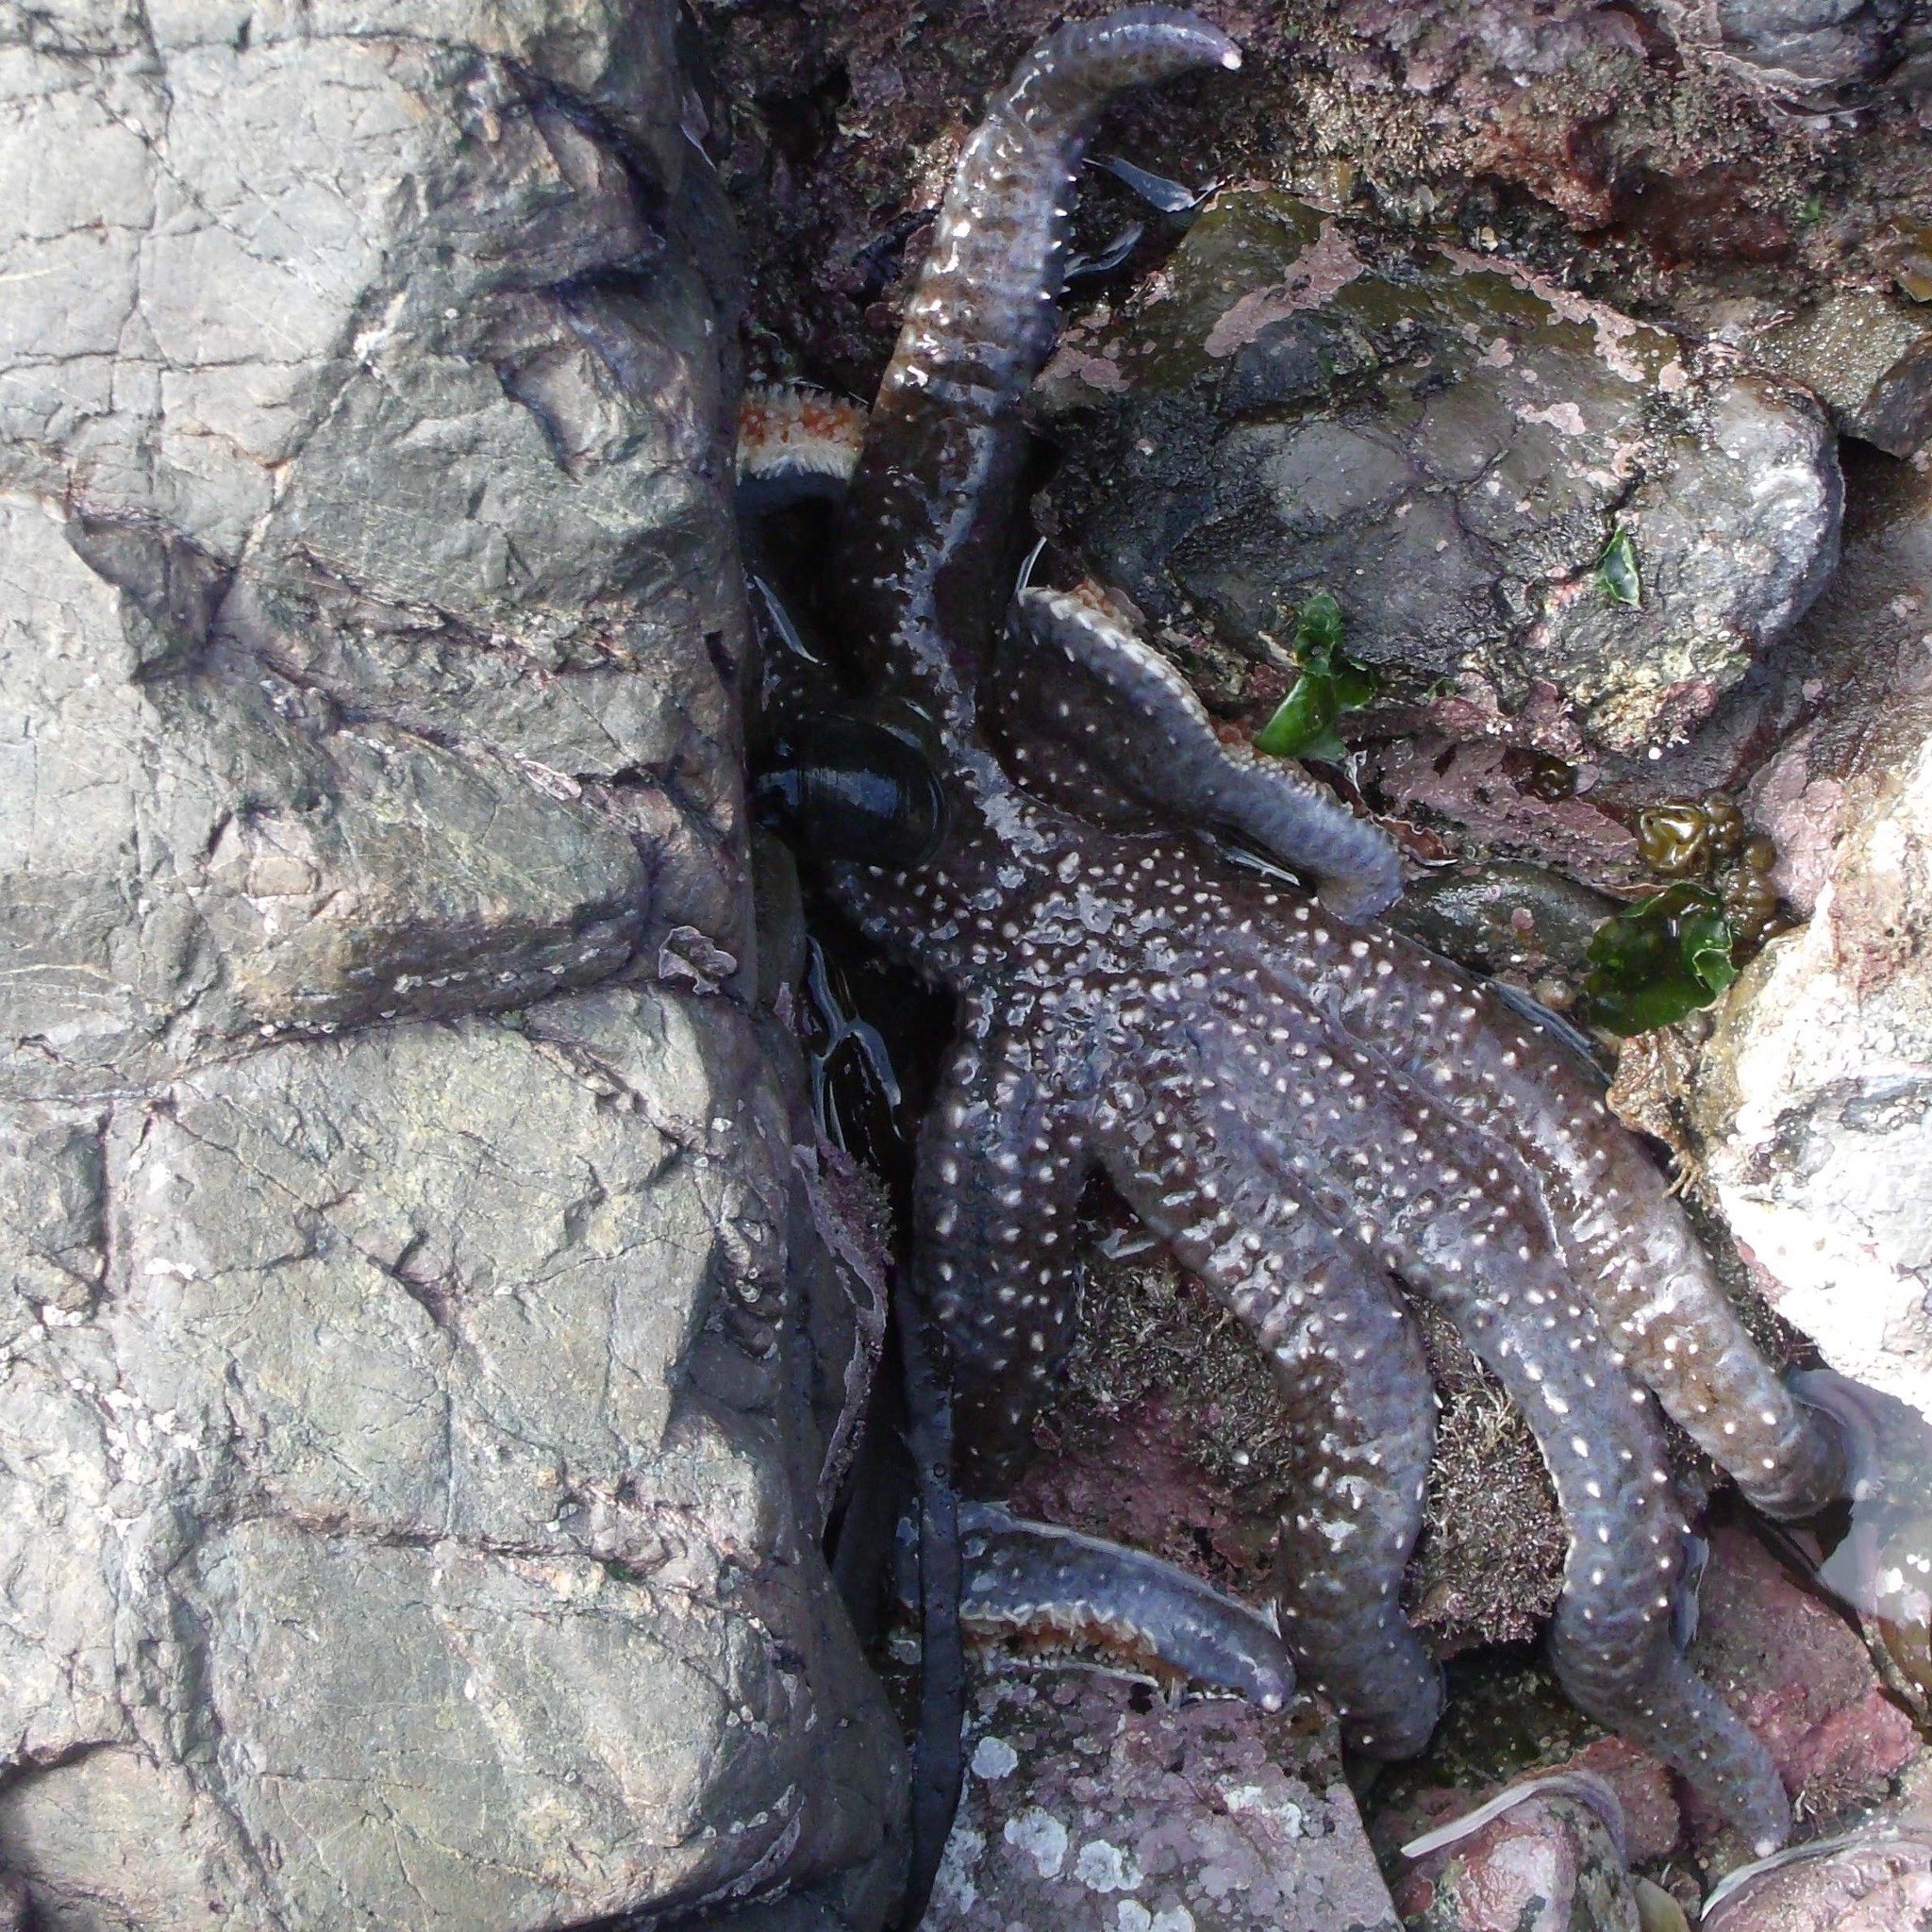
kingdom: Animalia
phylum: Echinodermata
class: Asteroidea
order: Forcipulatida
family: Asteriidae
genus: Astrostole
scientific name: Astrostole scabra
